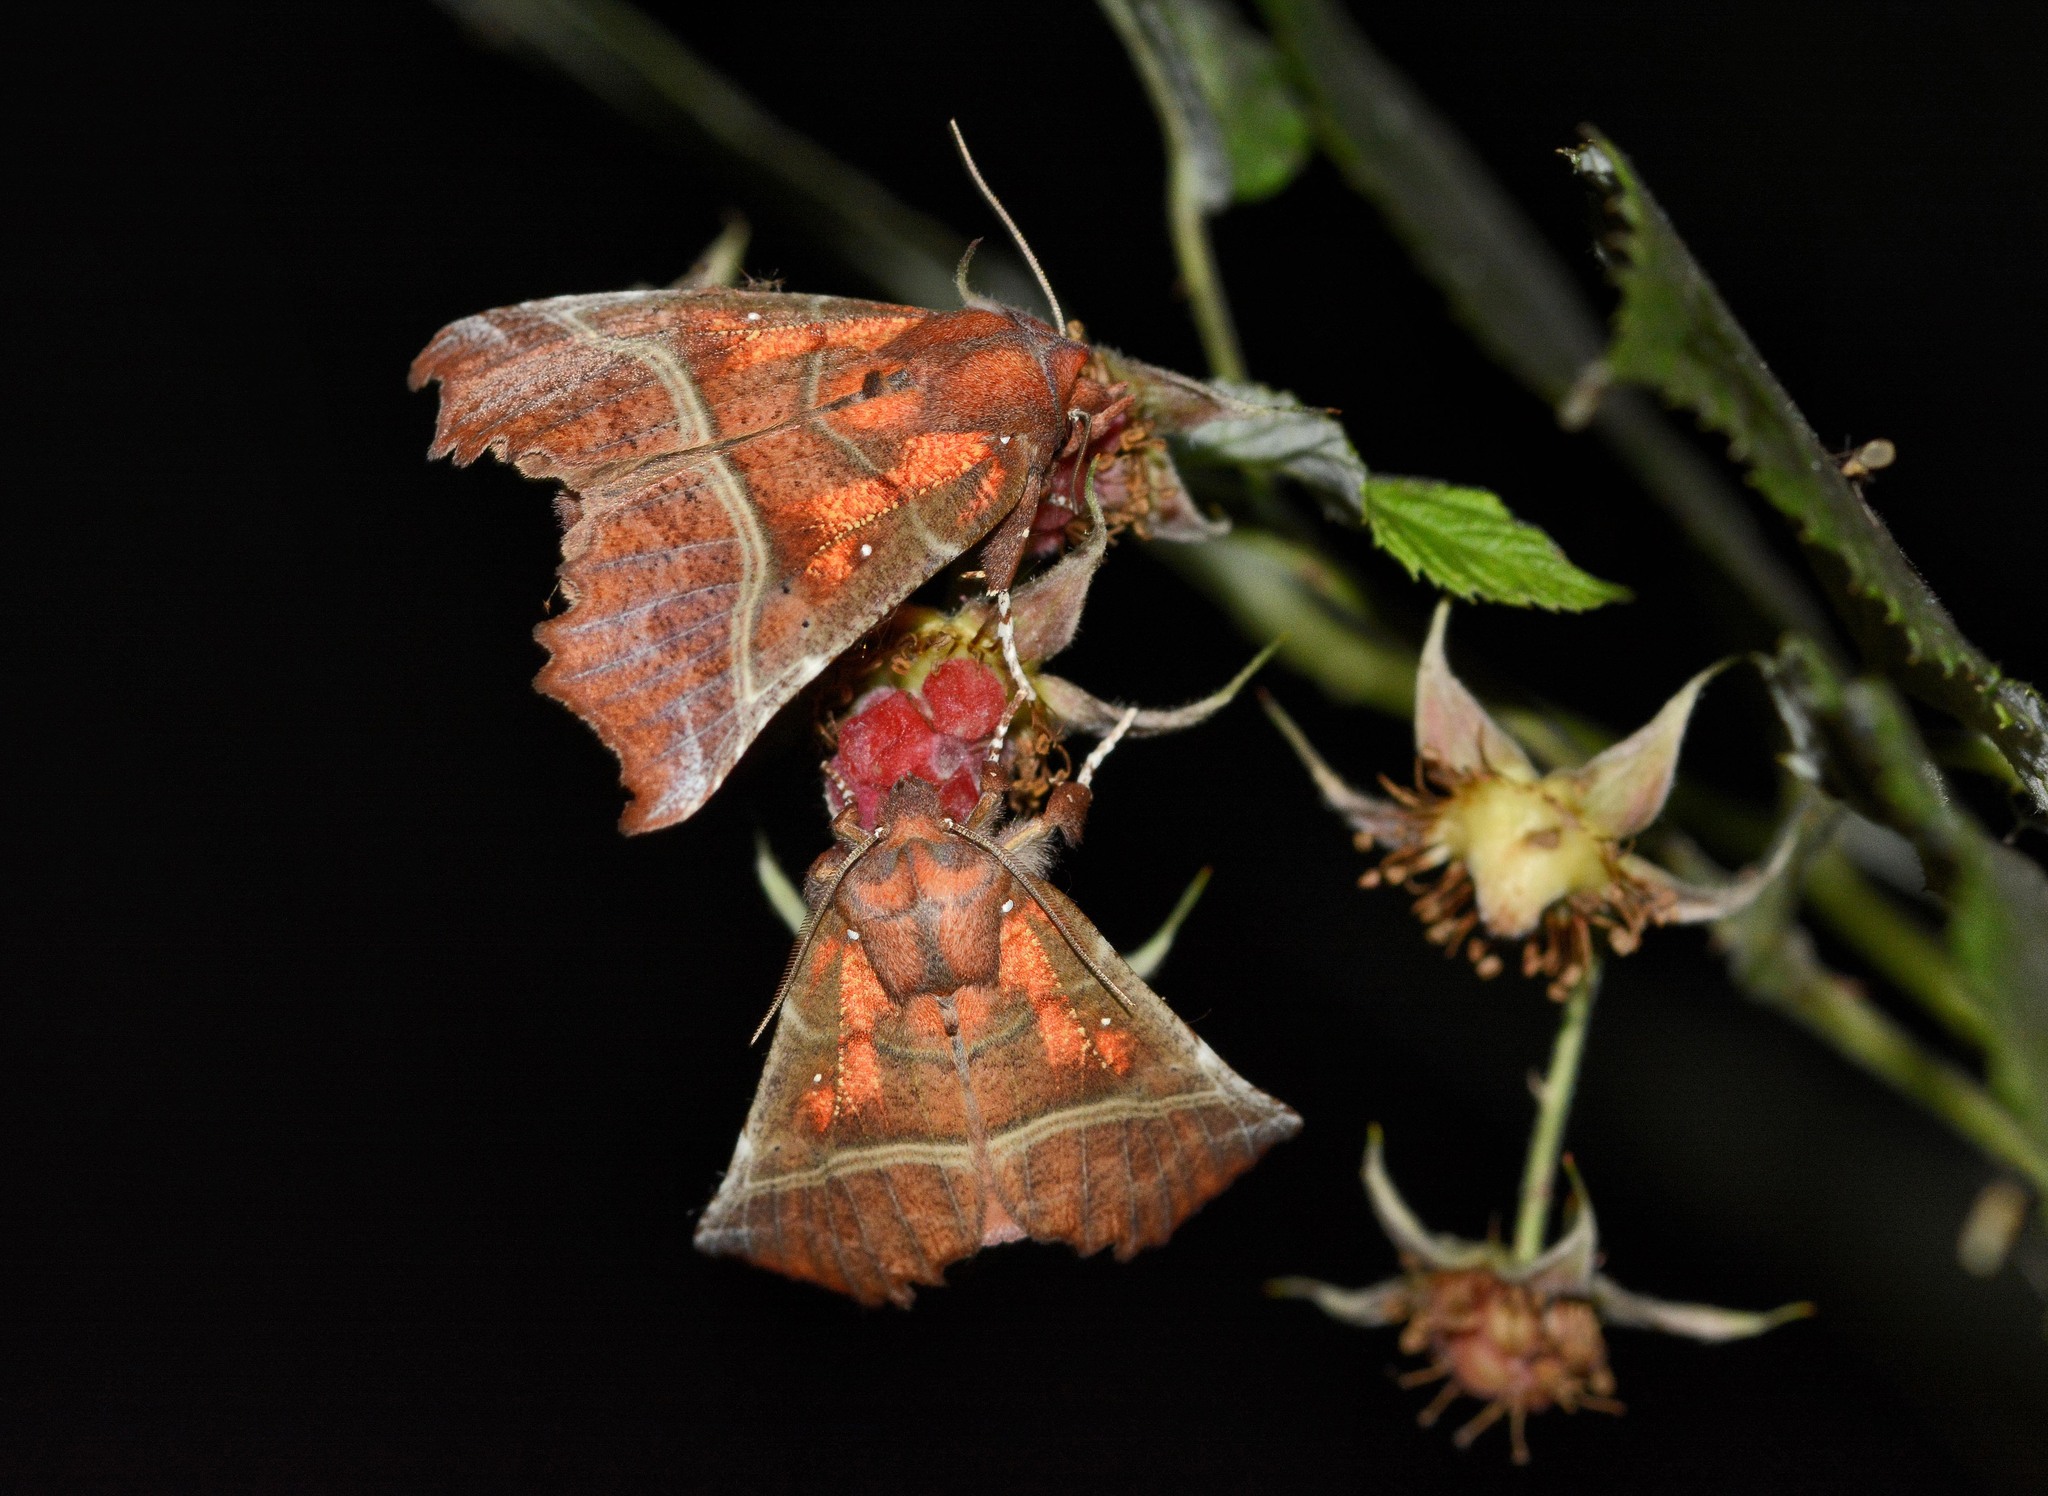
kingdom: Animalia
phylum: Arthropoda
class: Insecta
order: Lepidoptera
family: Erebidae
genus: Scoliopteryx
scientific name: Scoliopteryx libatrix
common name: Herald
